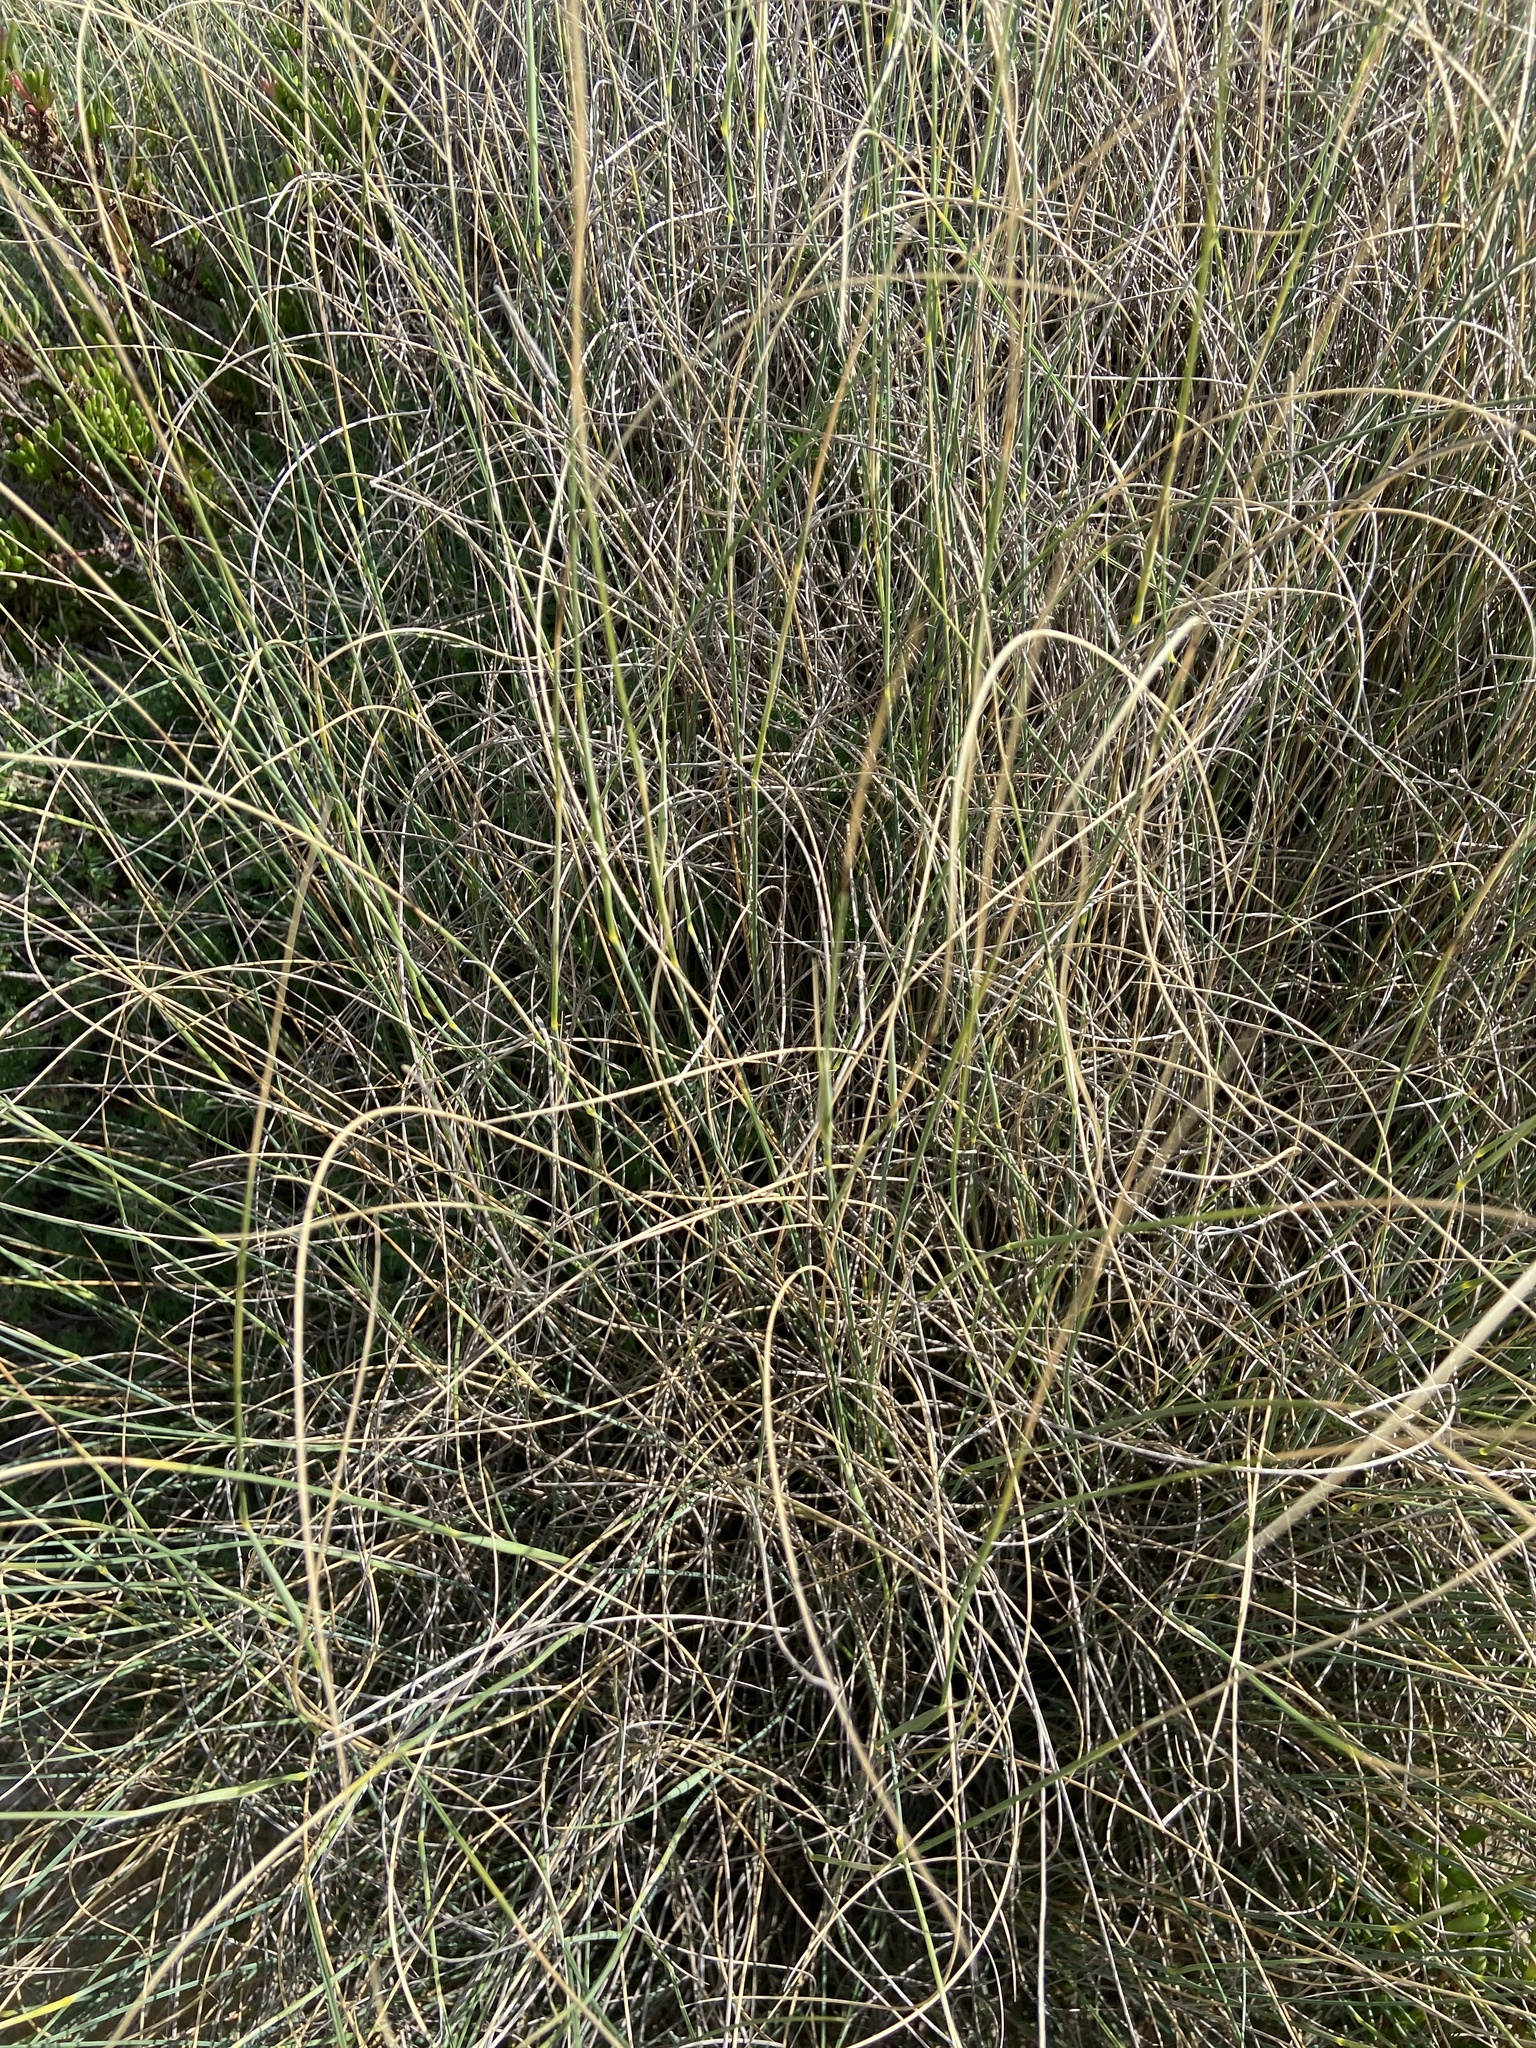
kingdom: Plantae
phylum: Tracheophyta
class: Liliopsida
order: Poales
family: Poaceae
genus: Lygeum
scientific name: Lygeum spartum
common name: Albardine
